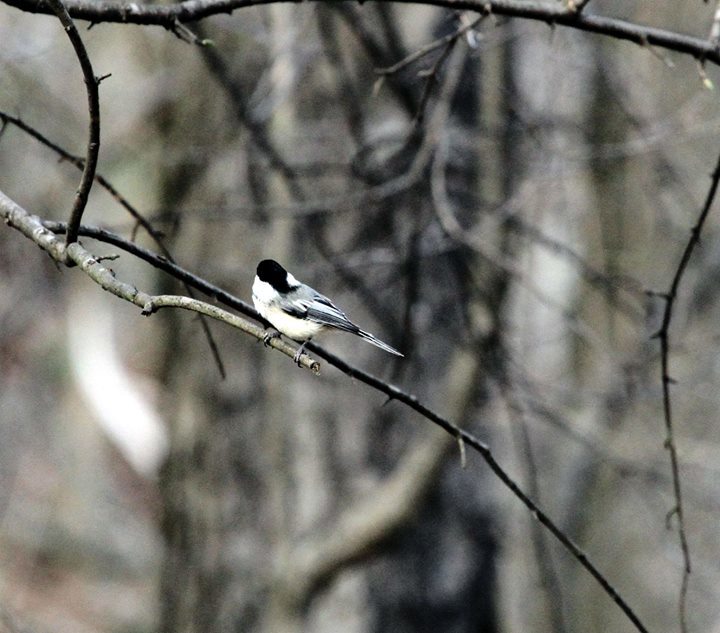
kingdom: Animalia
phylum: Chordata
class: Aves
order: Passeriformes
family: Paridae
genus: Poecile
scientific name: Poecile atricapillus
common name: Black-capped chickadee
